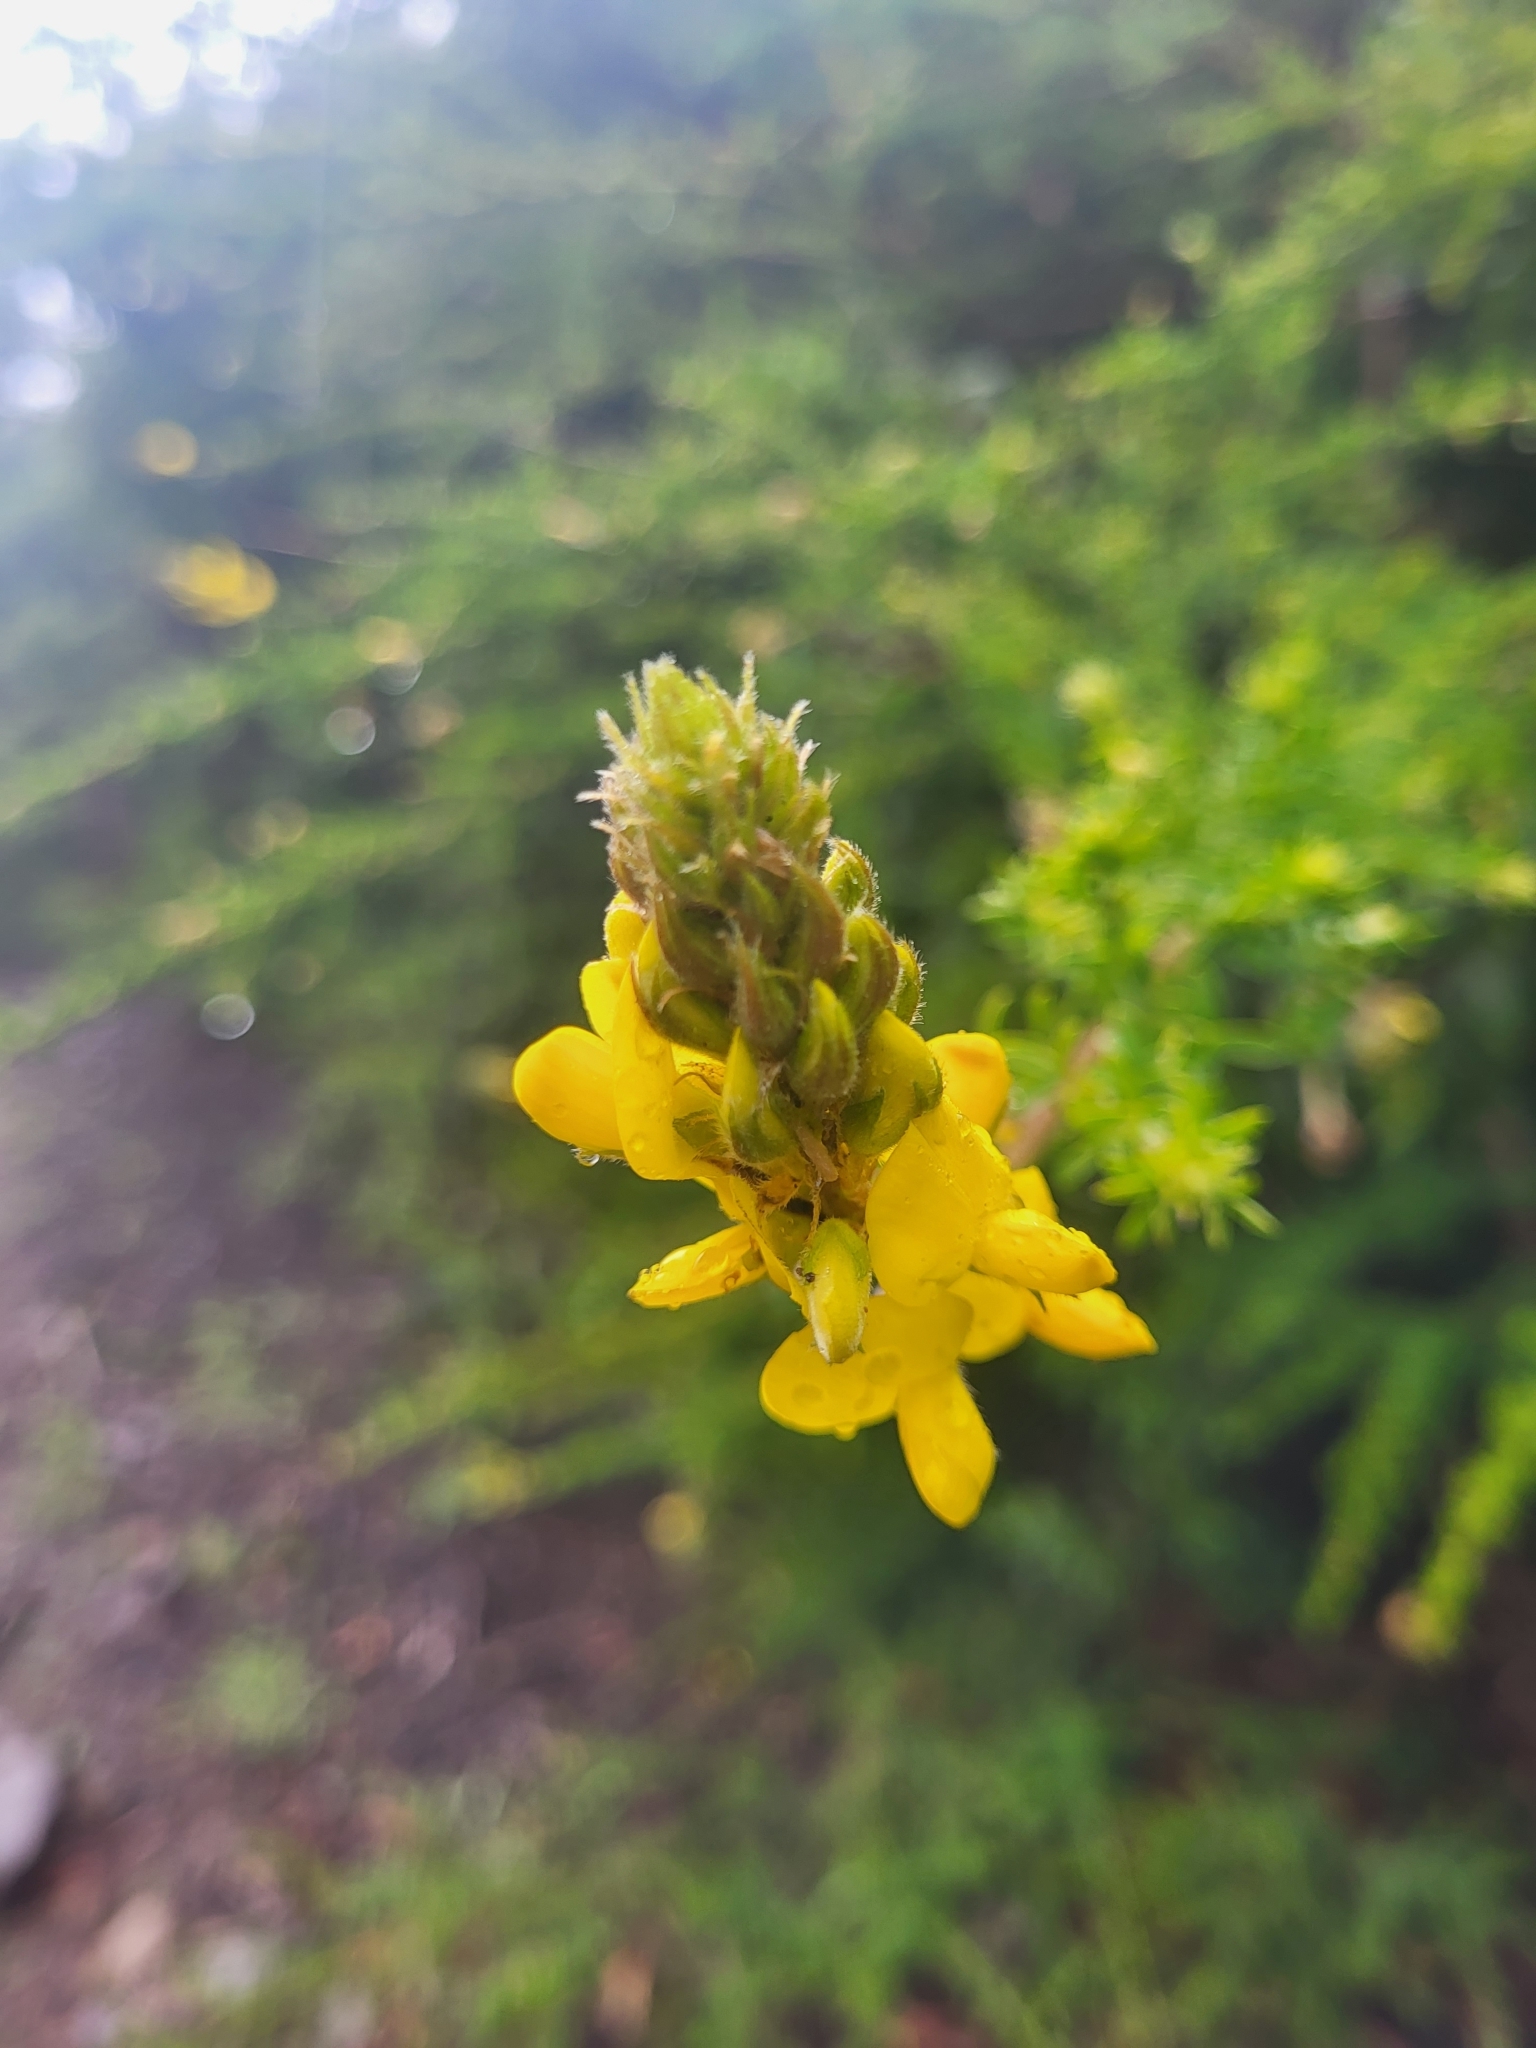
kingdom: Plantae
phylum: Tracheophyta
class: Magnoliopsida
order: Fabales
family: Fabaceae
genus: Adenocarpus
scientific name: Adenocarpus foliolosus
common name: Canary island flatpod
